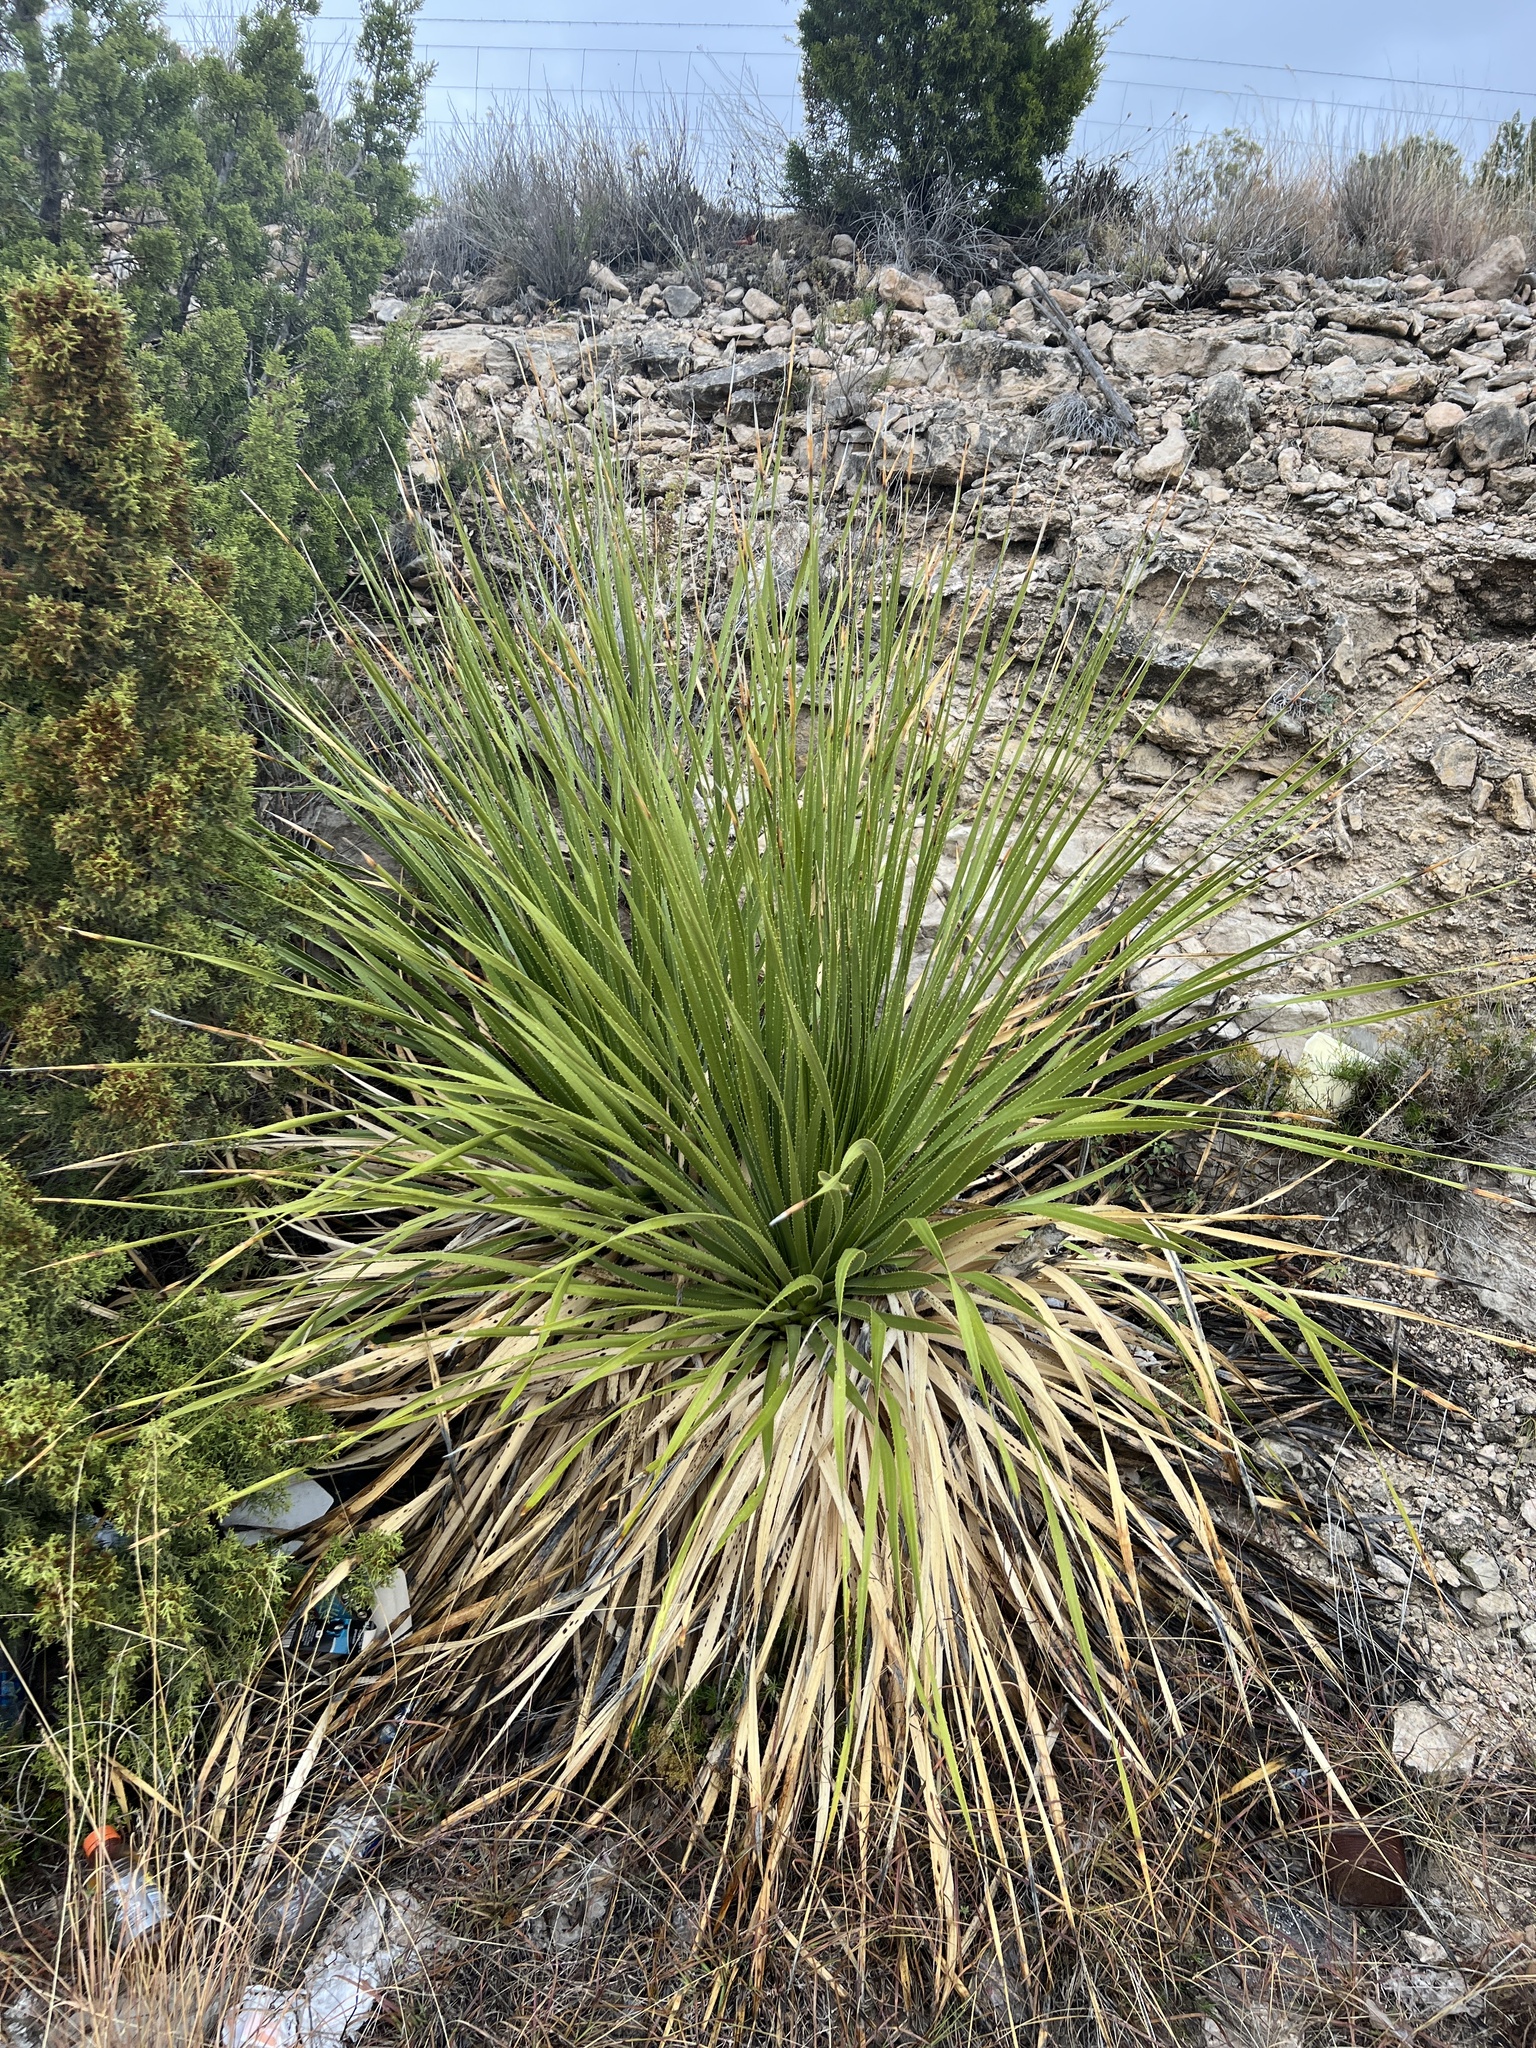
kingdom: Plantae
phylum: Tracheophyta
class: Liliopsida
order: Asparagales
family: Asparagaceae
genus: Dasylirion
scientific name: Dasylirion texanum
